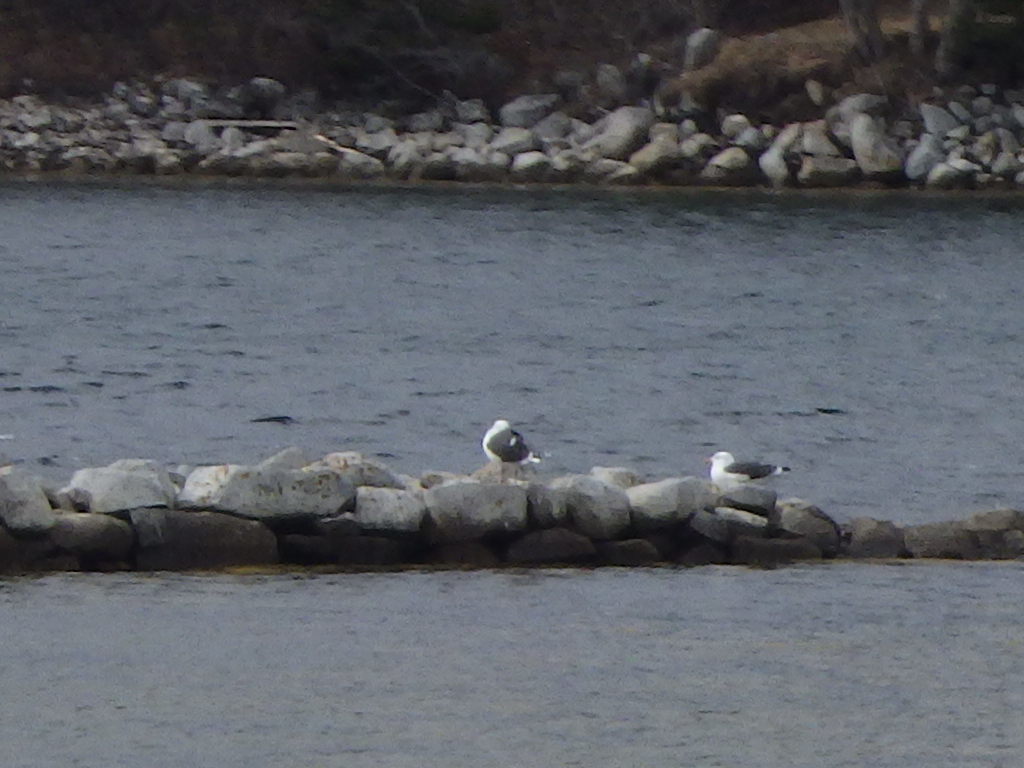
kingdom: Animalia
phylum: Chordata
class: Aves
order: Charadriiformes
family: Laridae
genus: Larus
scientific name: Larus marinus
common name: Great black-backed gull
